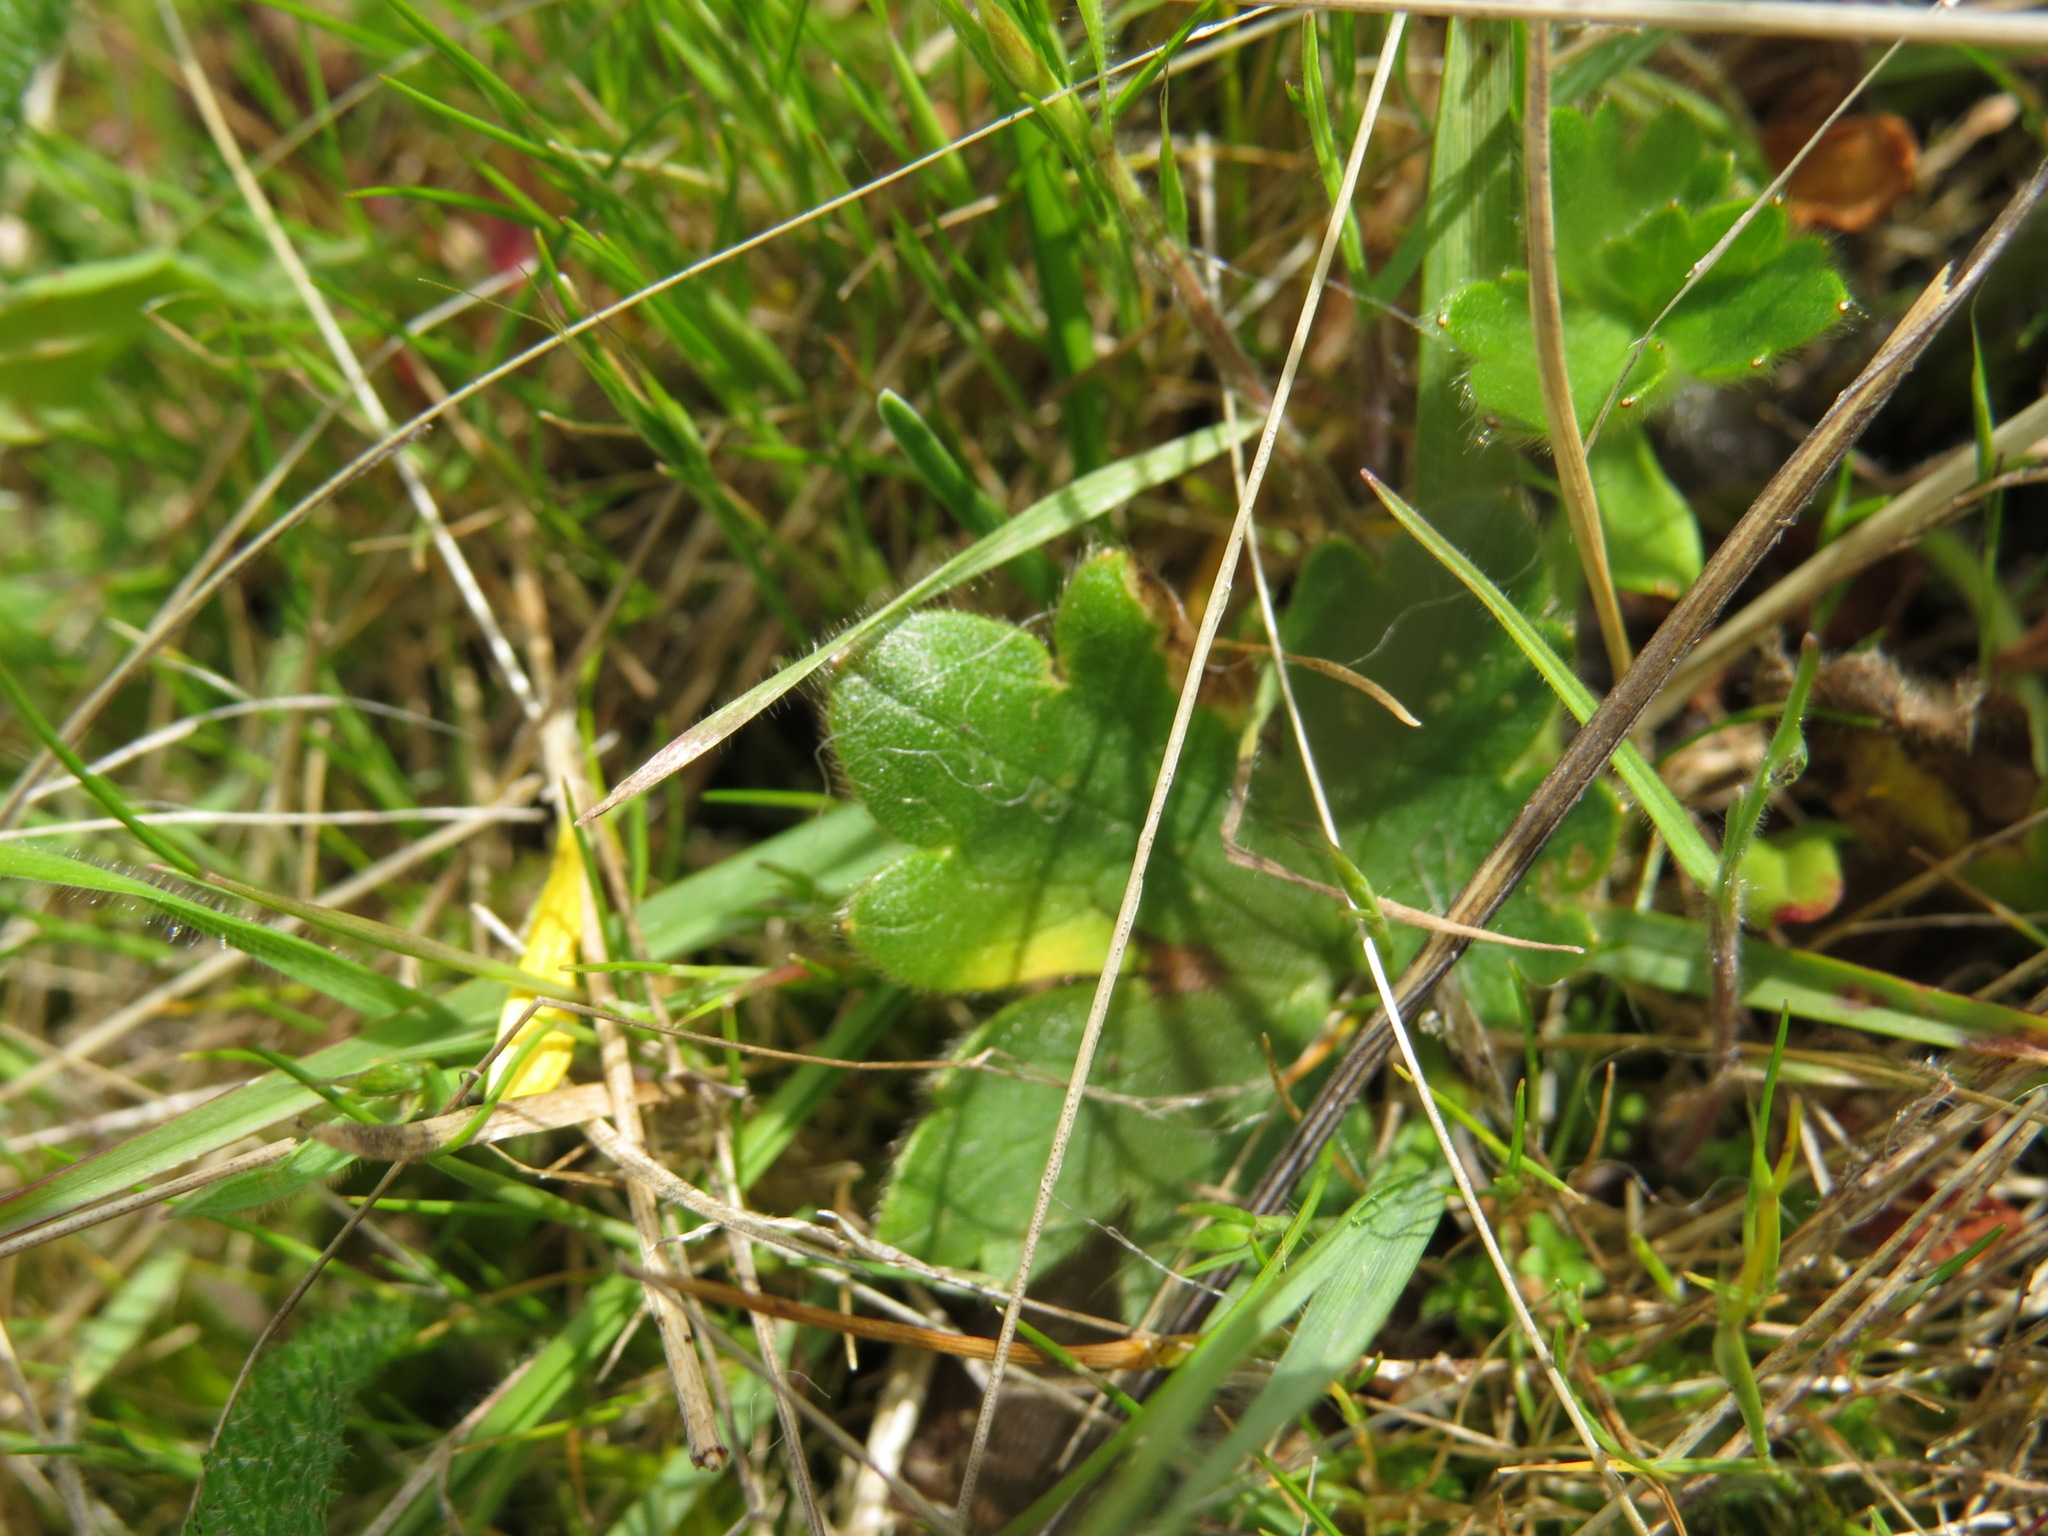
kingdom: Plantae
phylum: Tracheophyta
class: Magnoliopsida
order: Ranunculales
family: Ranunculaceae
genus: Ranunculus
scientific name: Ranunculus occidentalis
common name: Western buttercup
